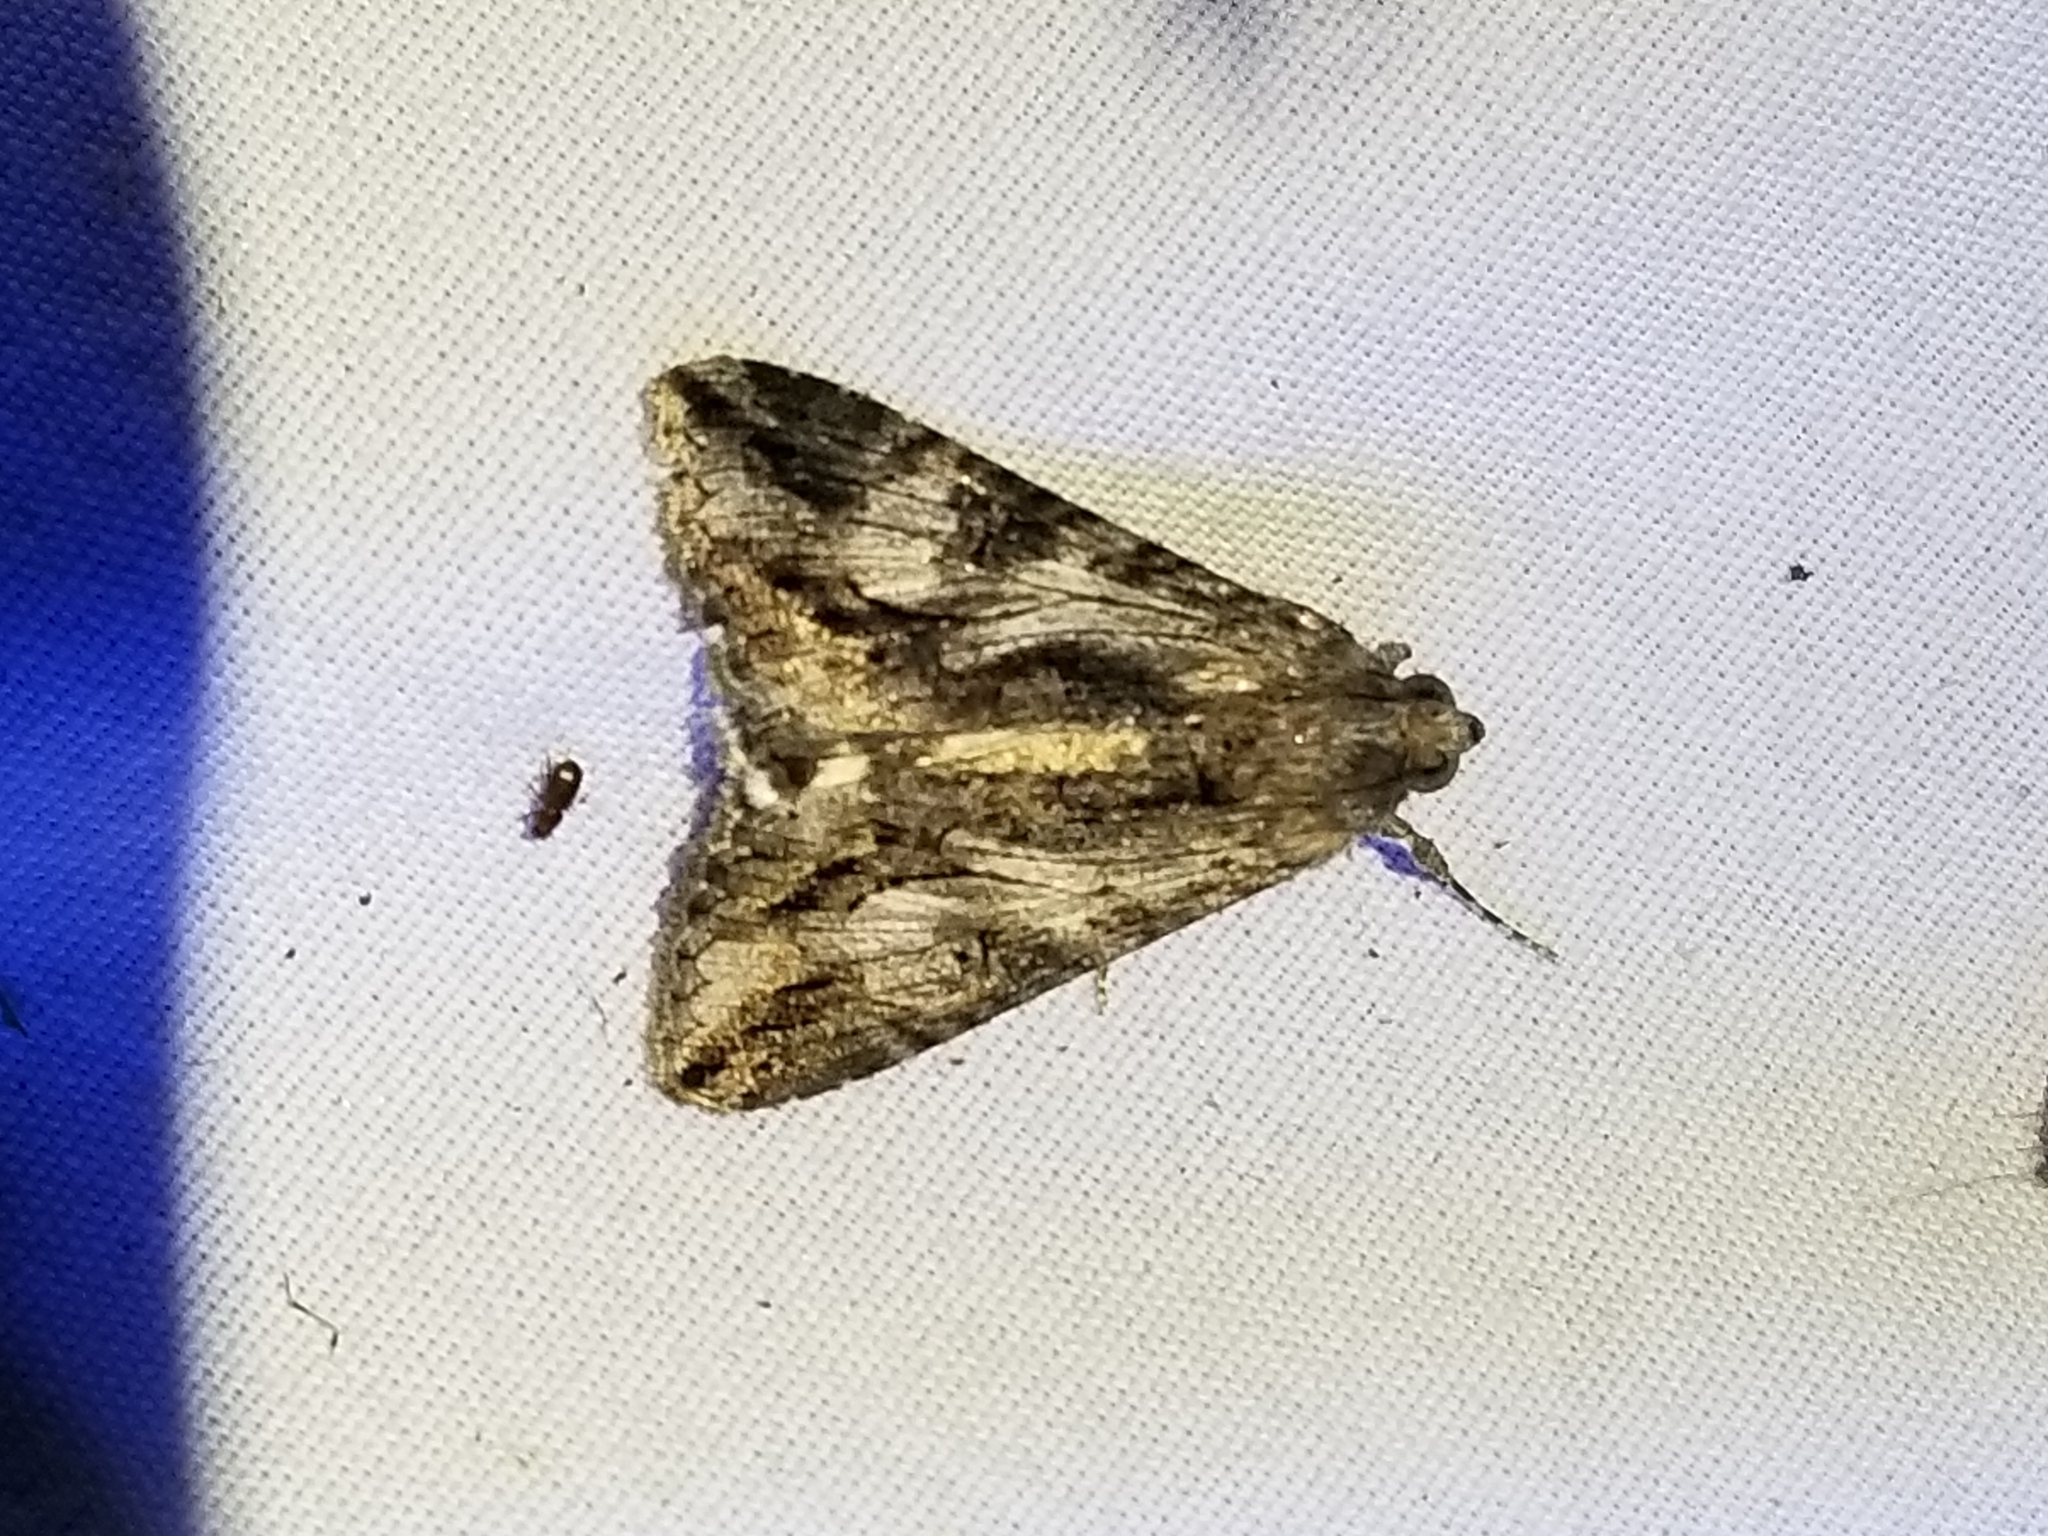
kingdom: Animalia
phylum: Arthropoda
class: Insecta
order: Lepidoptera
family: Erebidae
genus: Melipotis
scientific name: Melipotis jucunda
